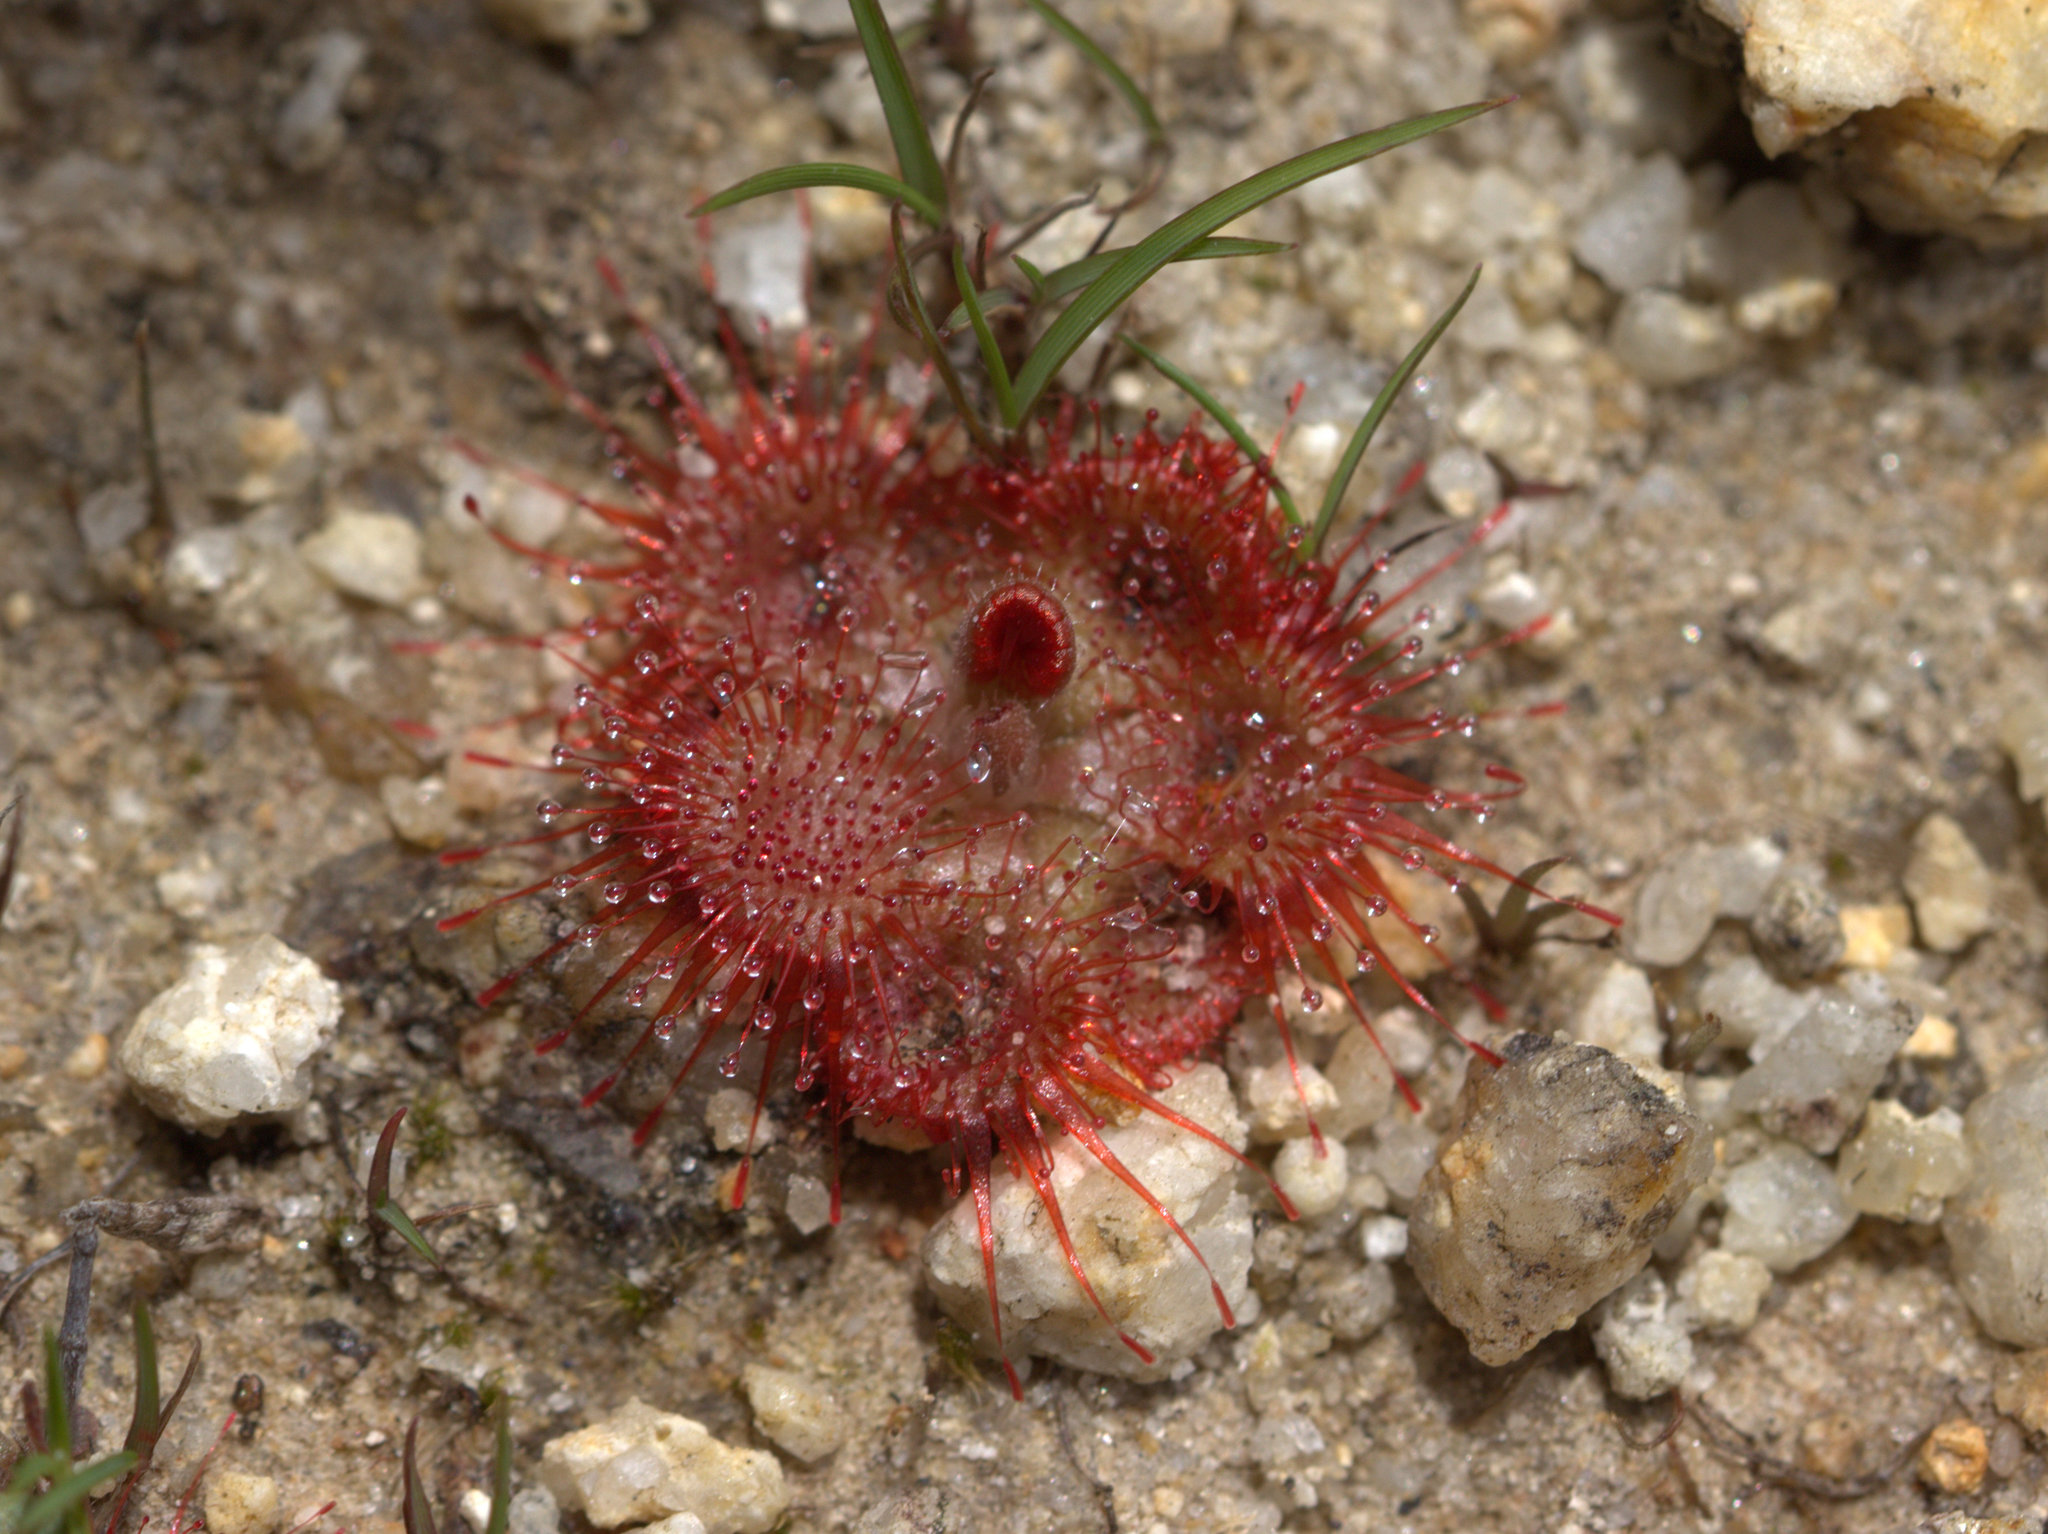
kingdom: Plantae
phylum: Tracheophyta
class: Magnoliopsida
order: Caryophyllales
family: Droseraceae
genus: Drosera
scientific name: Drosera spatulata
